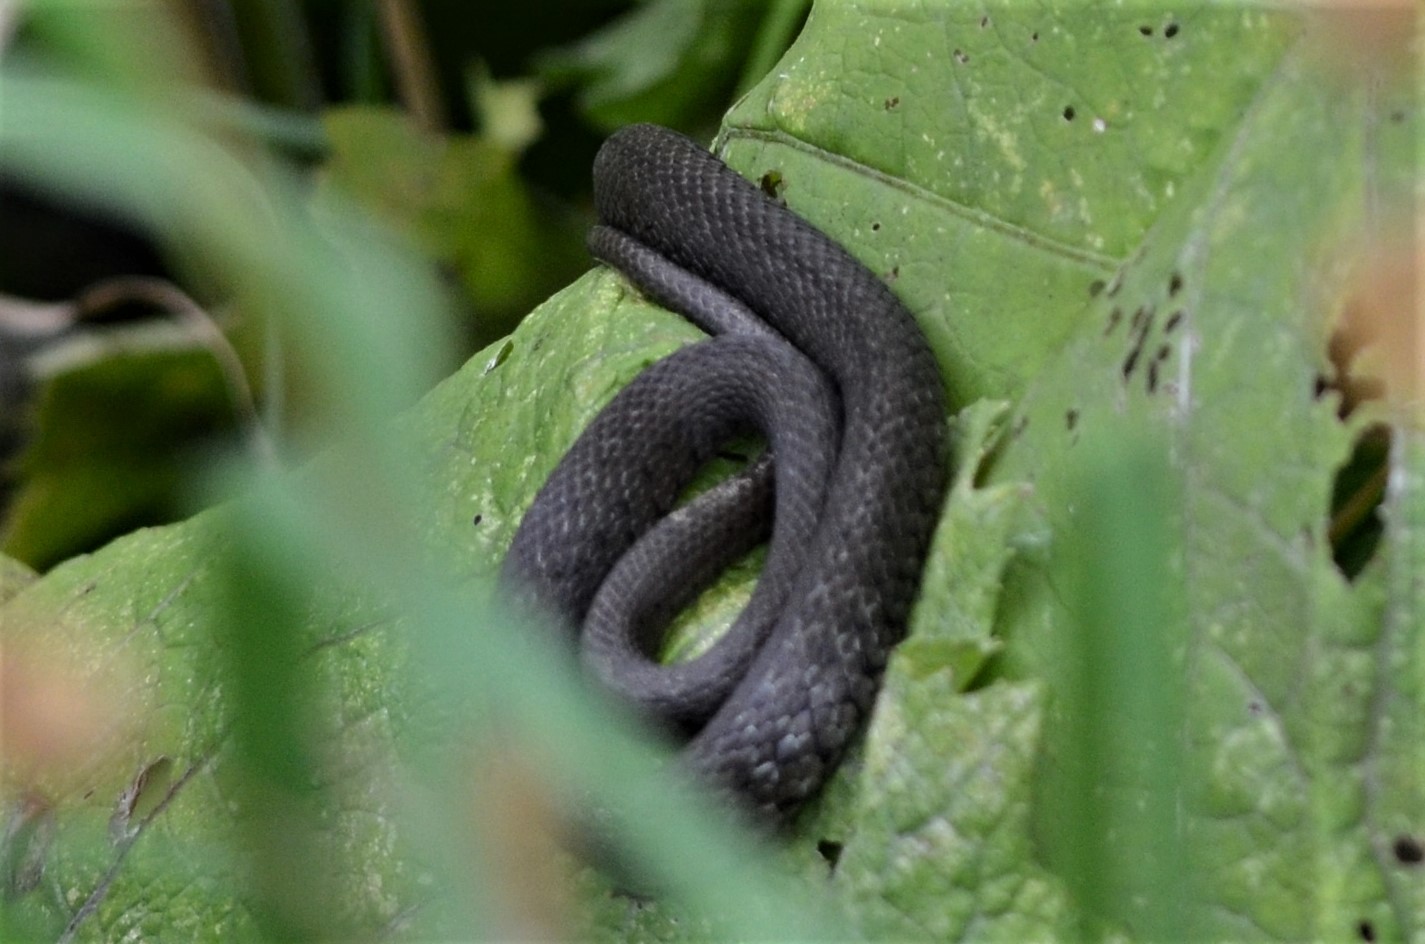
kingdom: Animalia
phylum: Chordata
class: Squamata
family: Colubridae
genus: Natrix
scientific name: Natrix natrix
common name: Grass snake
